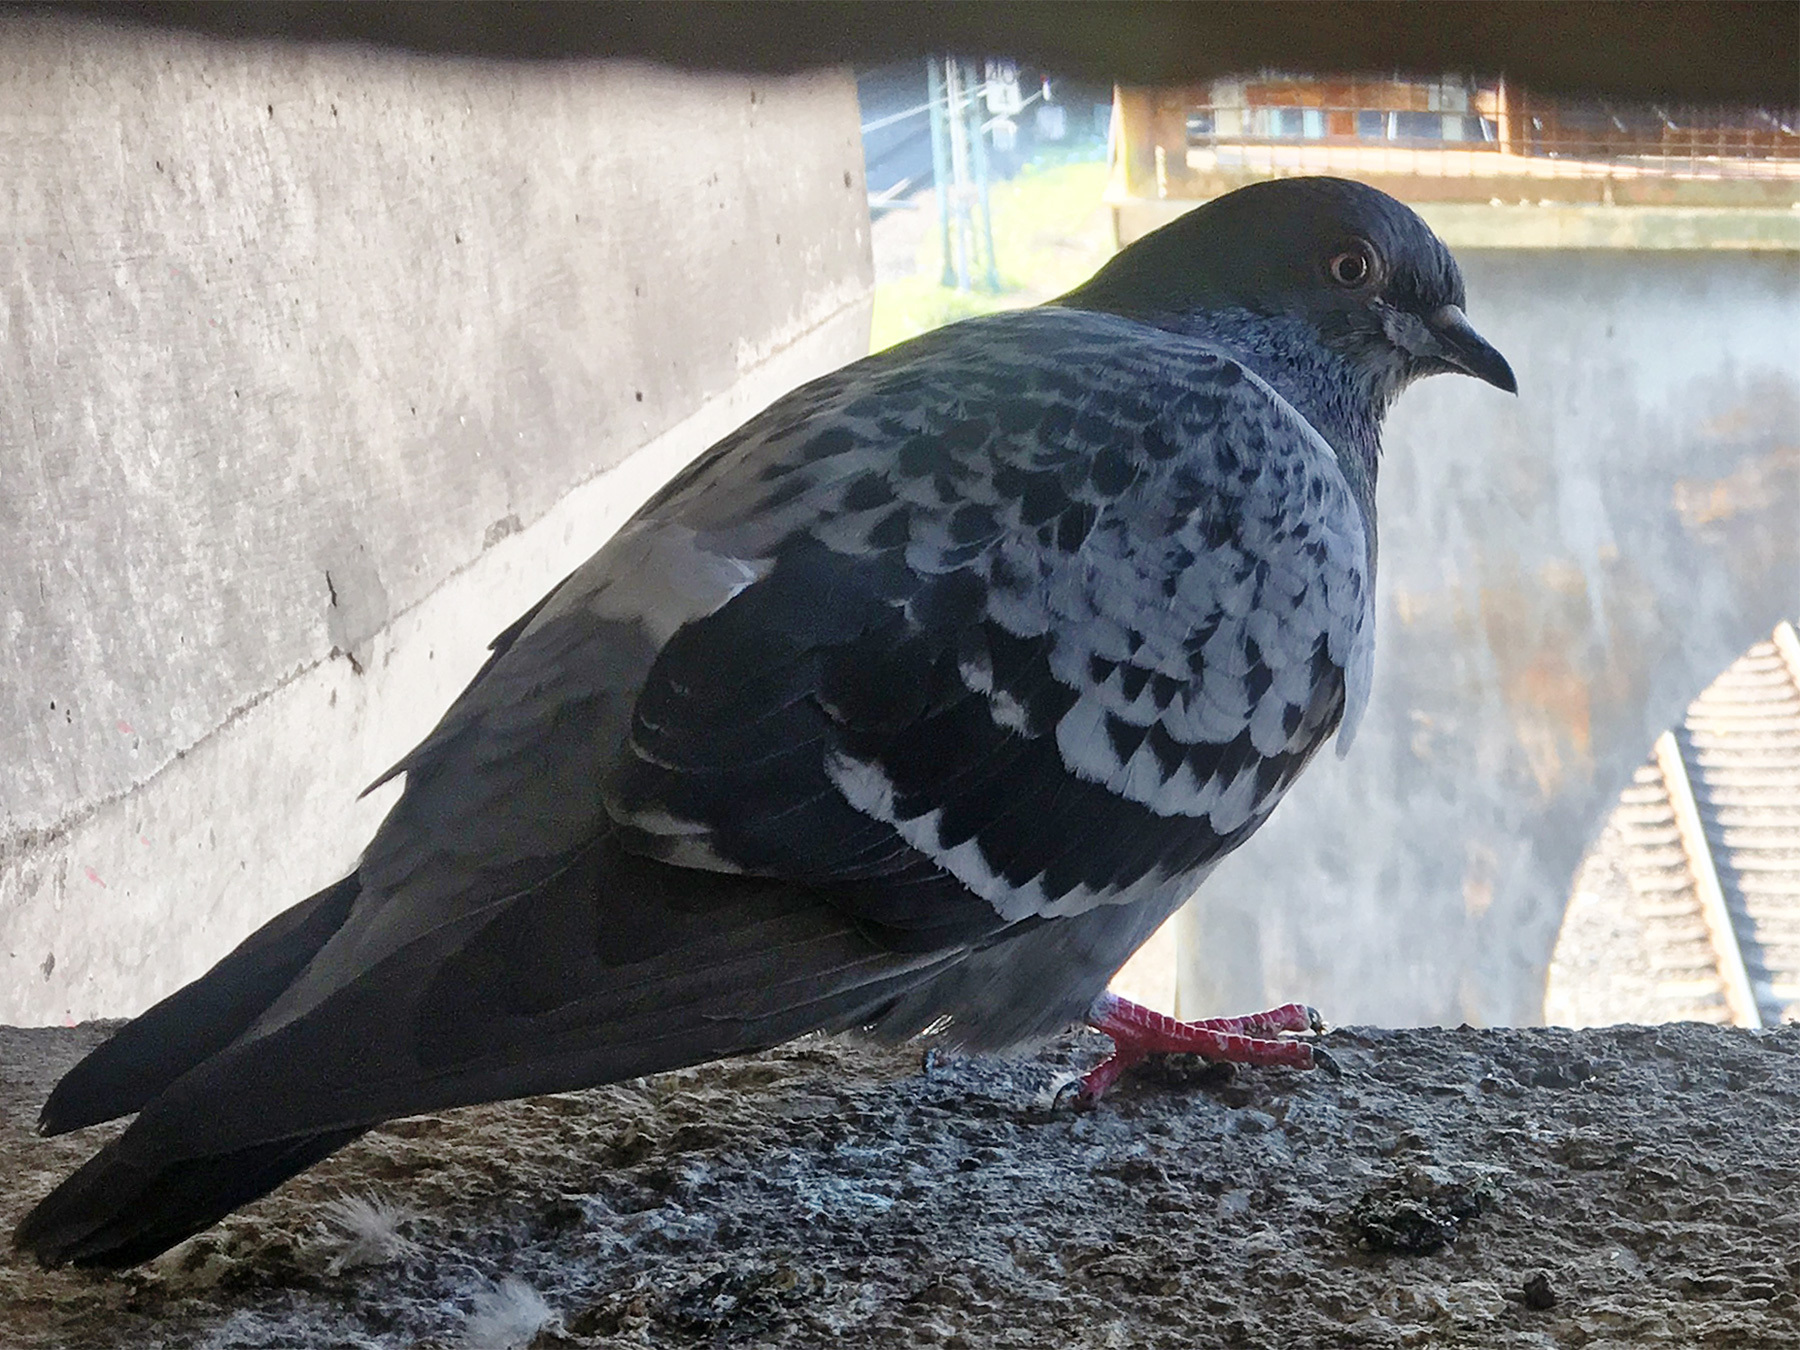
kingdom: Animalia
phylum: Chordata
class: Aves
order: Columbiformes
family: Columbidae
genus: Columba
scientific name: Columba livia
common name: Rock pigeon
